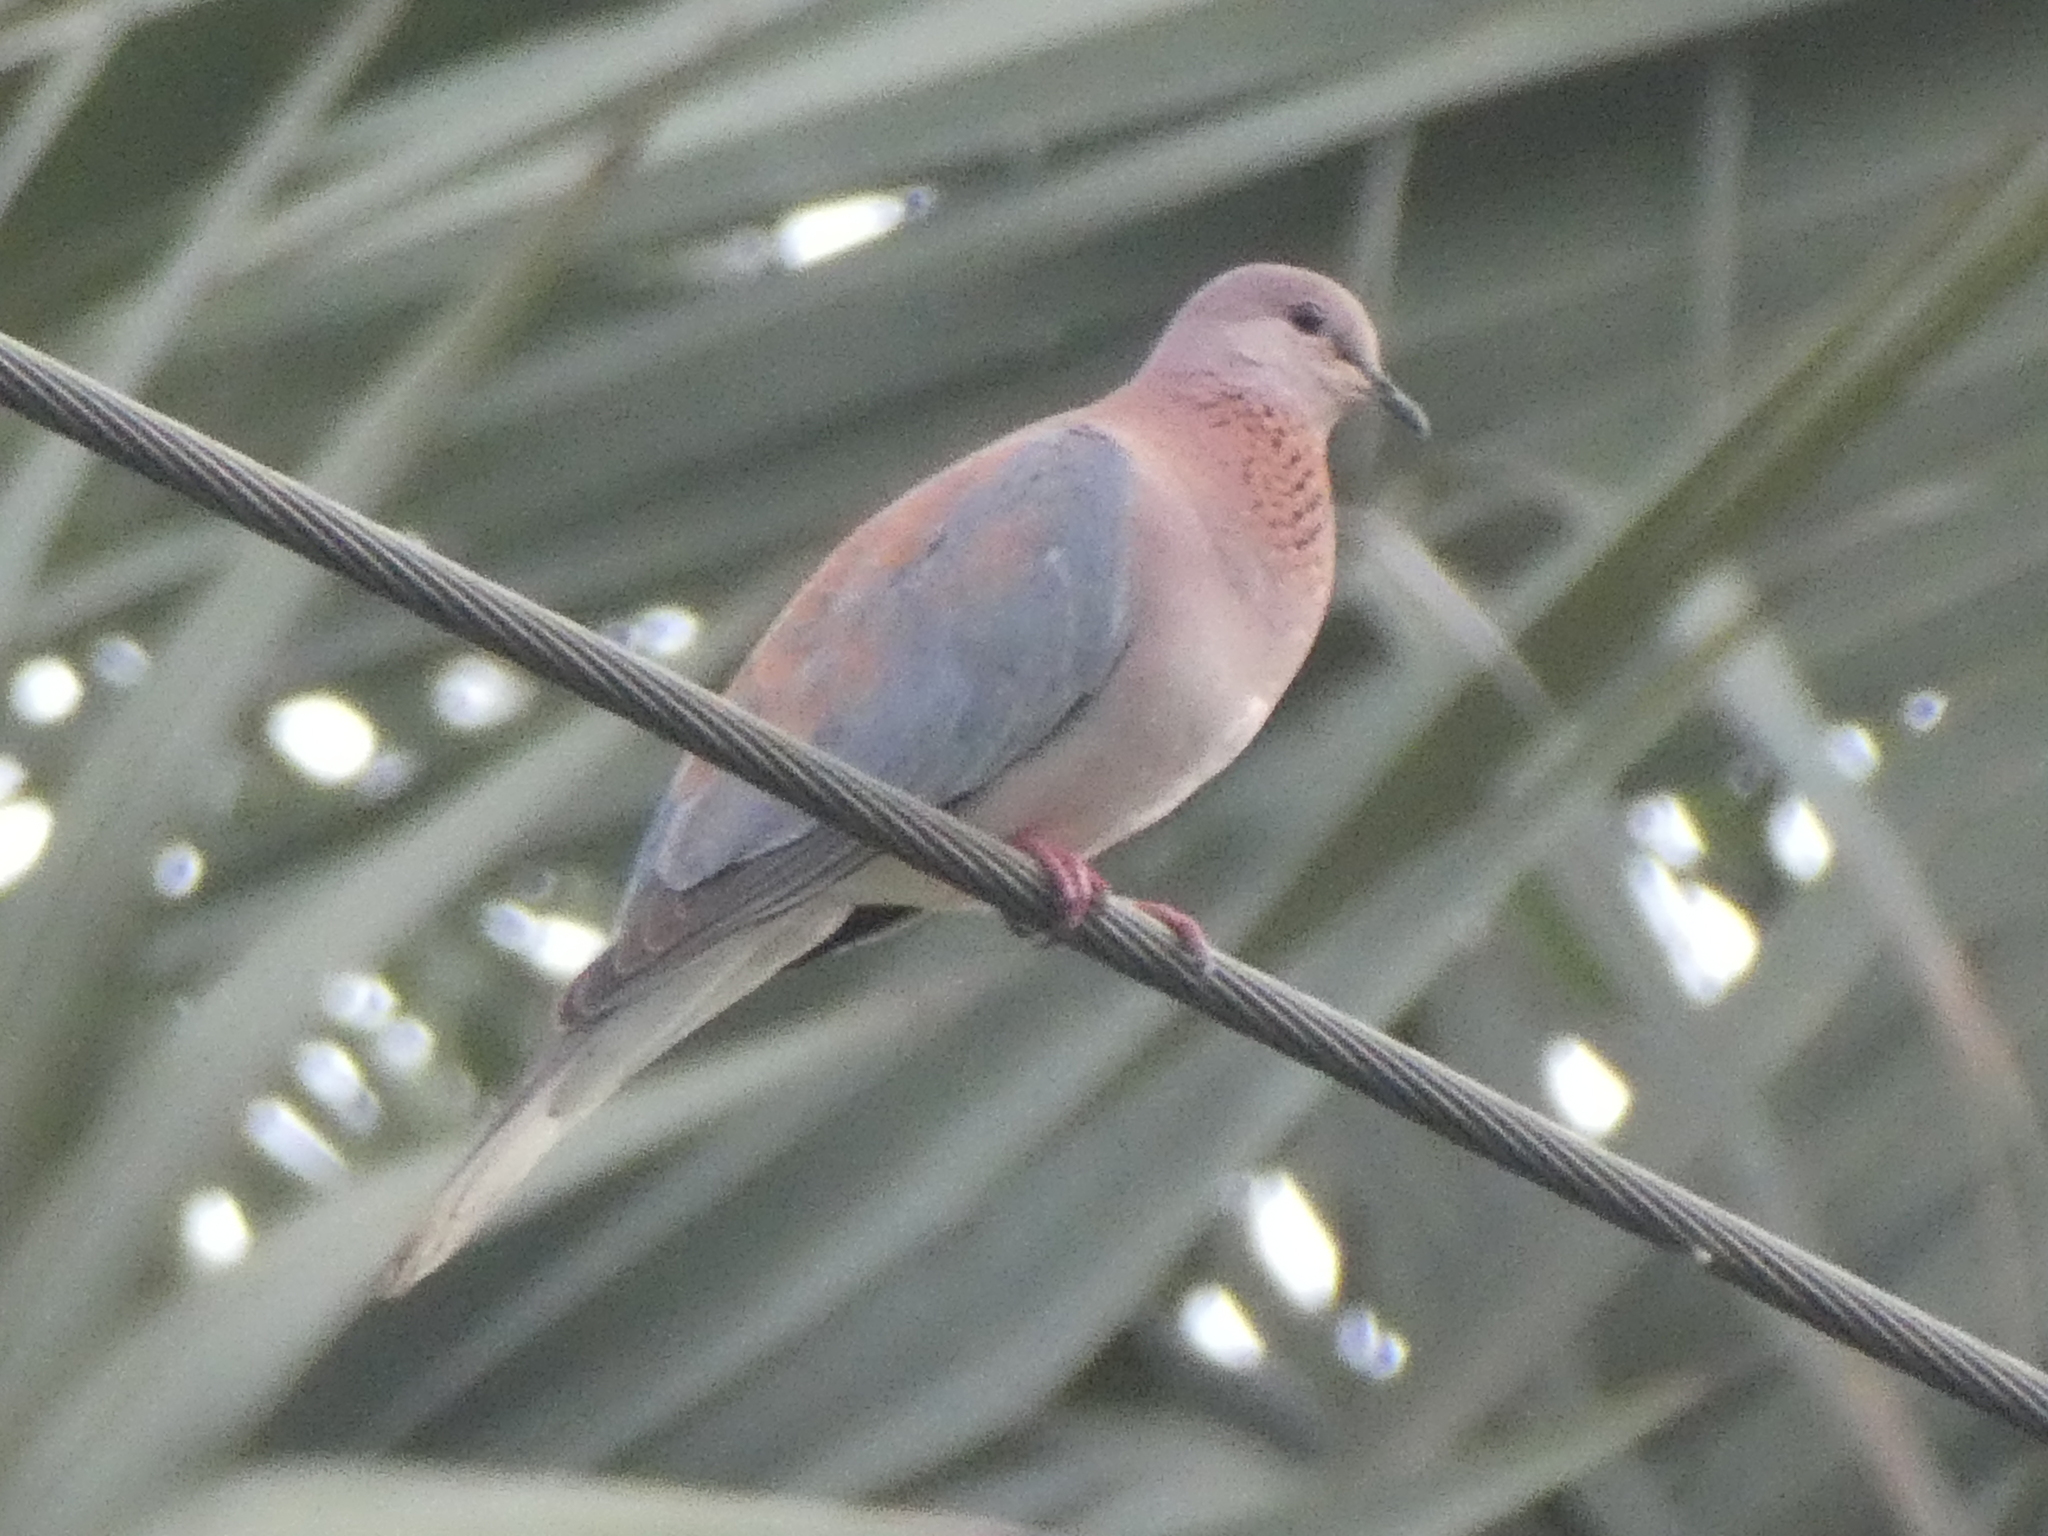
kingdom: Animalia
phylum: Chordata
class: Aves
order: Columbiformes
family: Columbidae
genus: Spilopelia
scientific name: Spilopelia senegalensis
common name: Laughing dove
